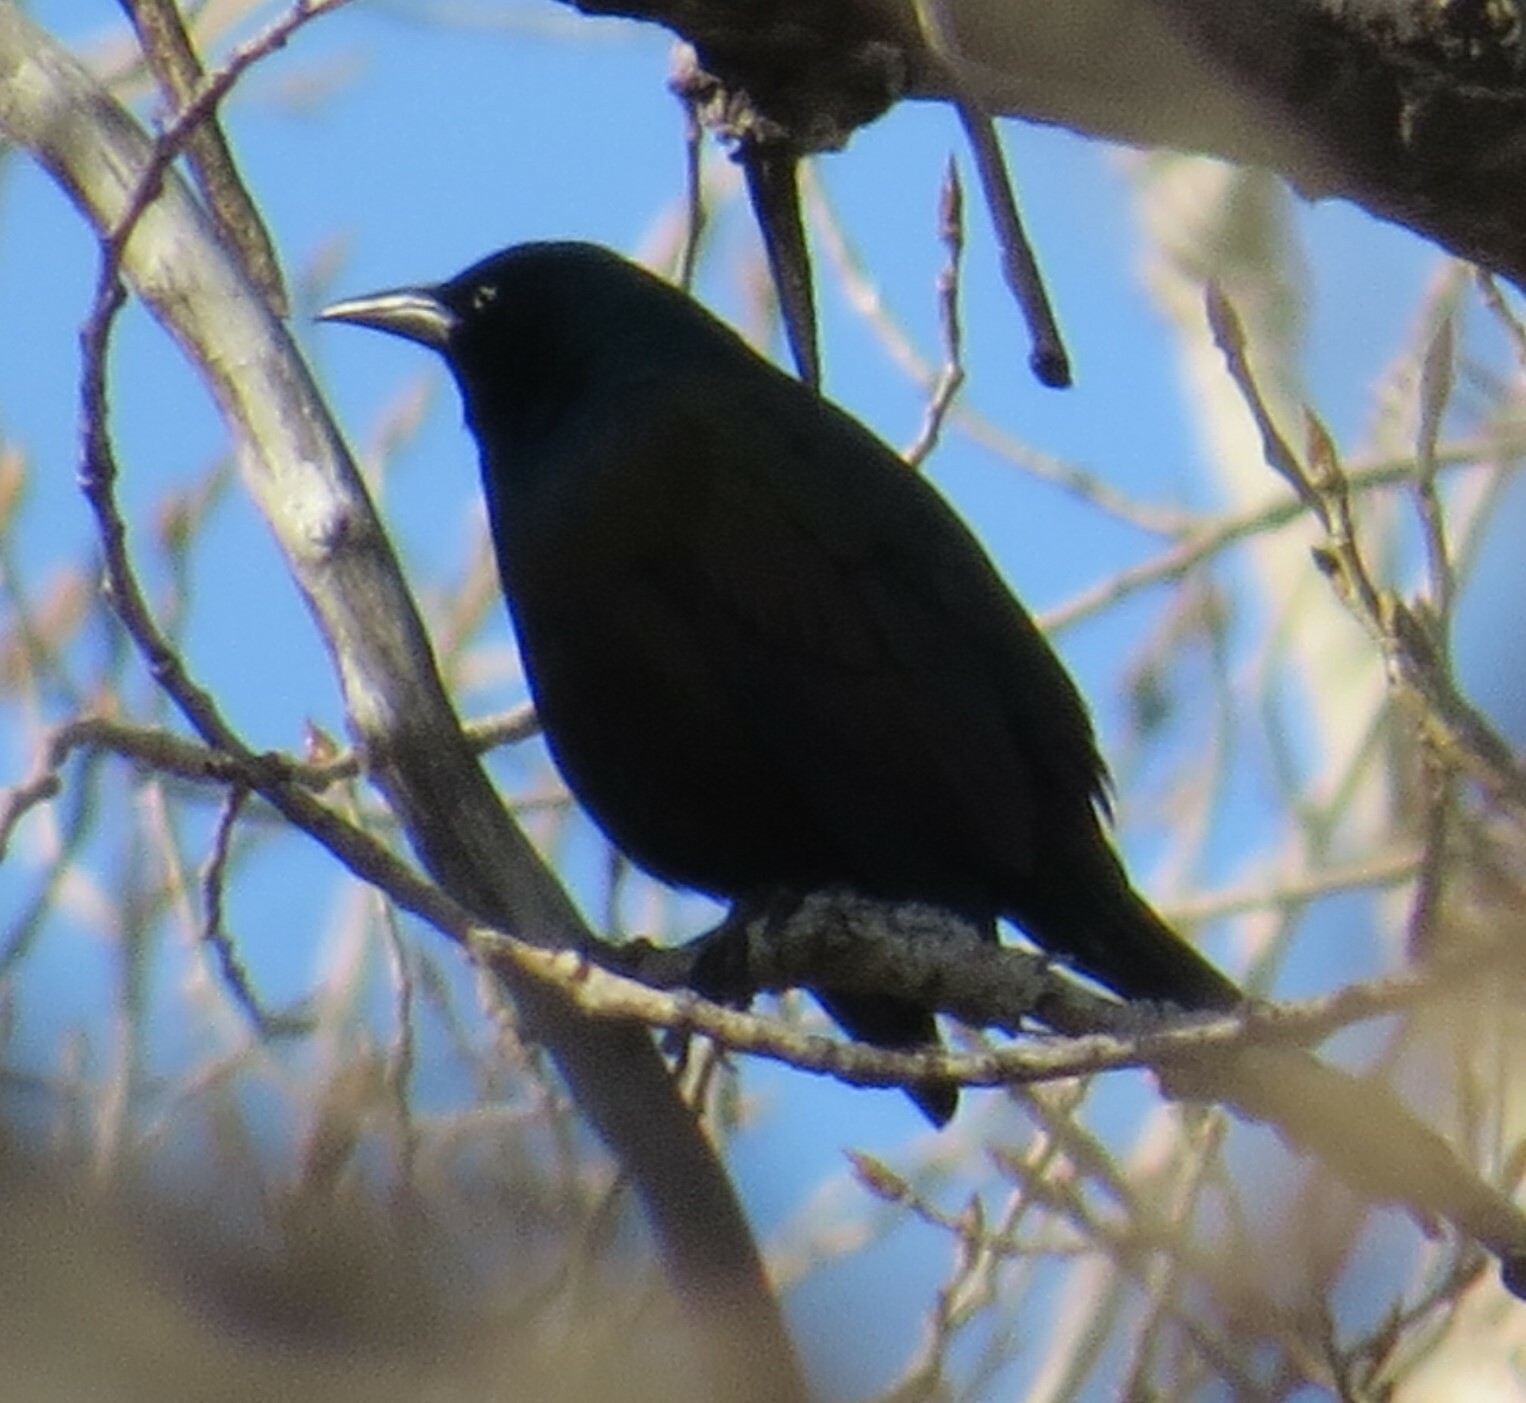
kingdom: Animalia
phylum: Chordata
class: Aves
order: Passeriformes
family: Icteridae
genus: Quiscalus
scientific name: Quiscalus quiscula
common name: Common grackle
